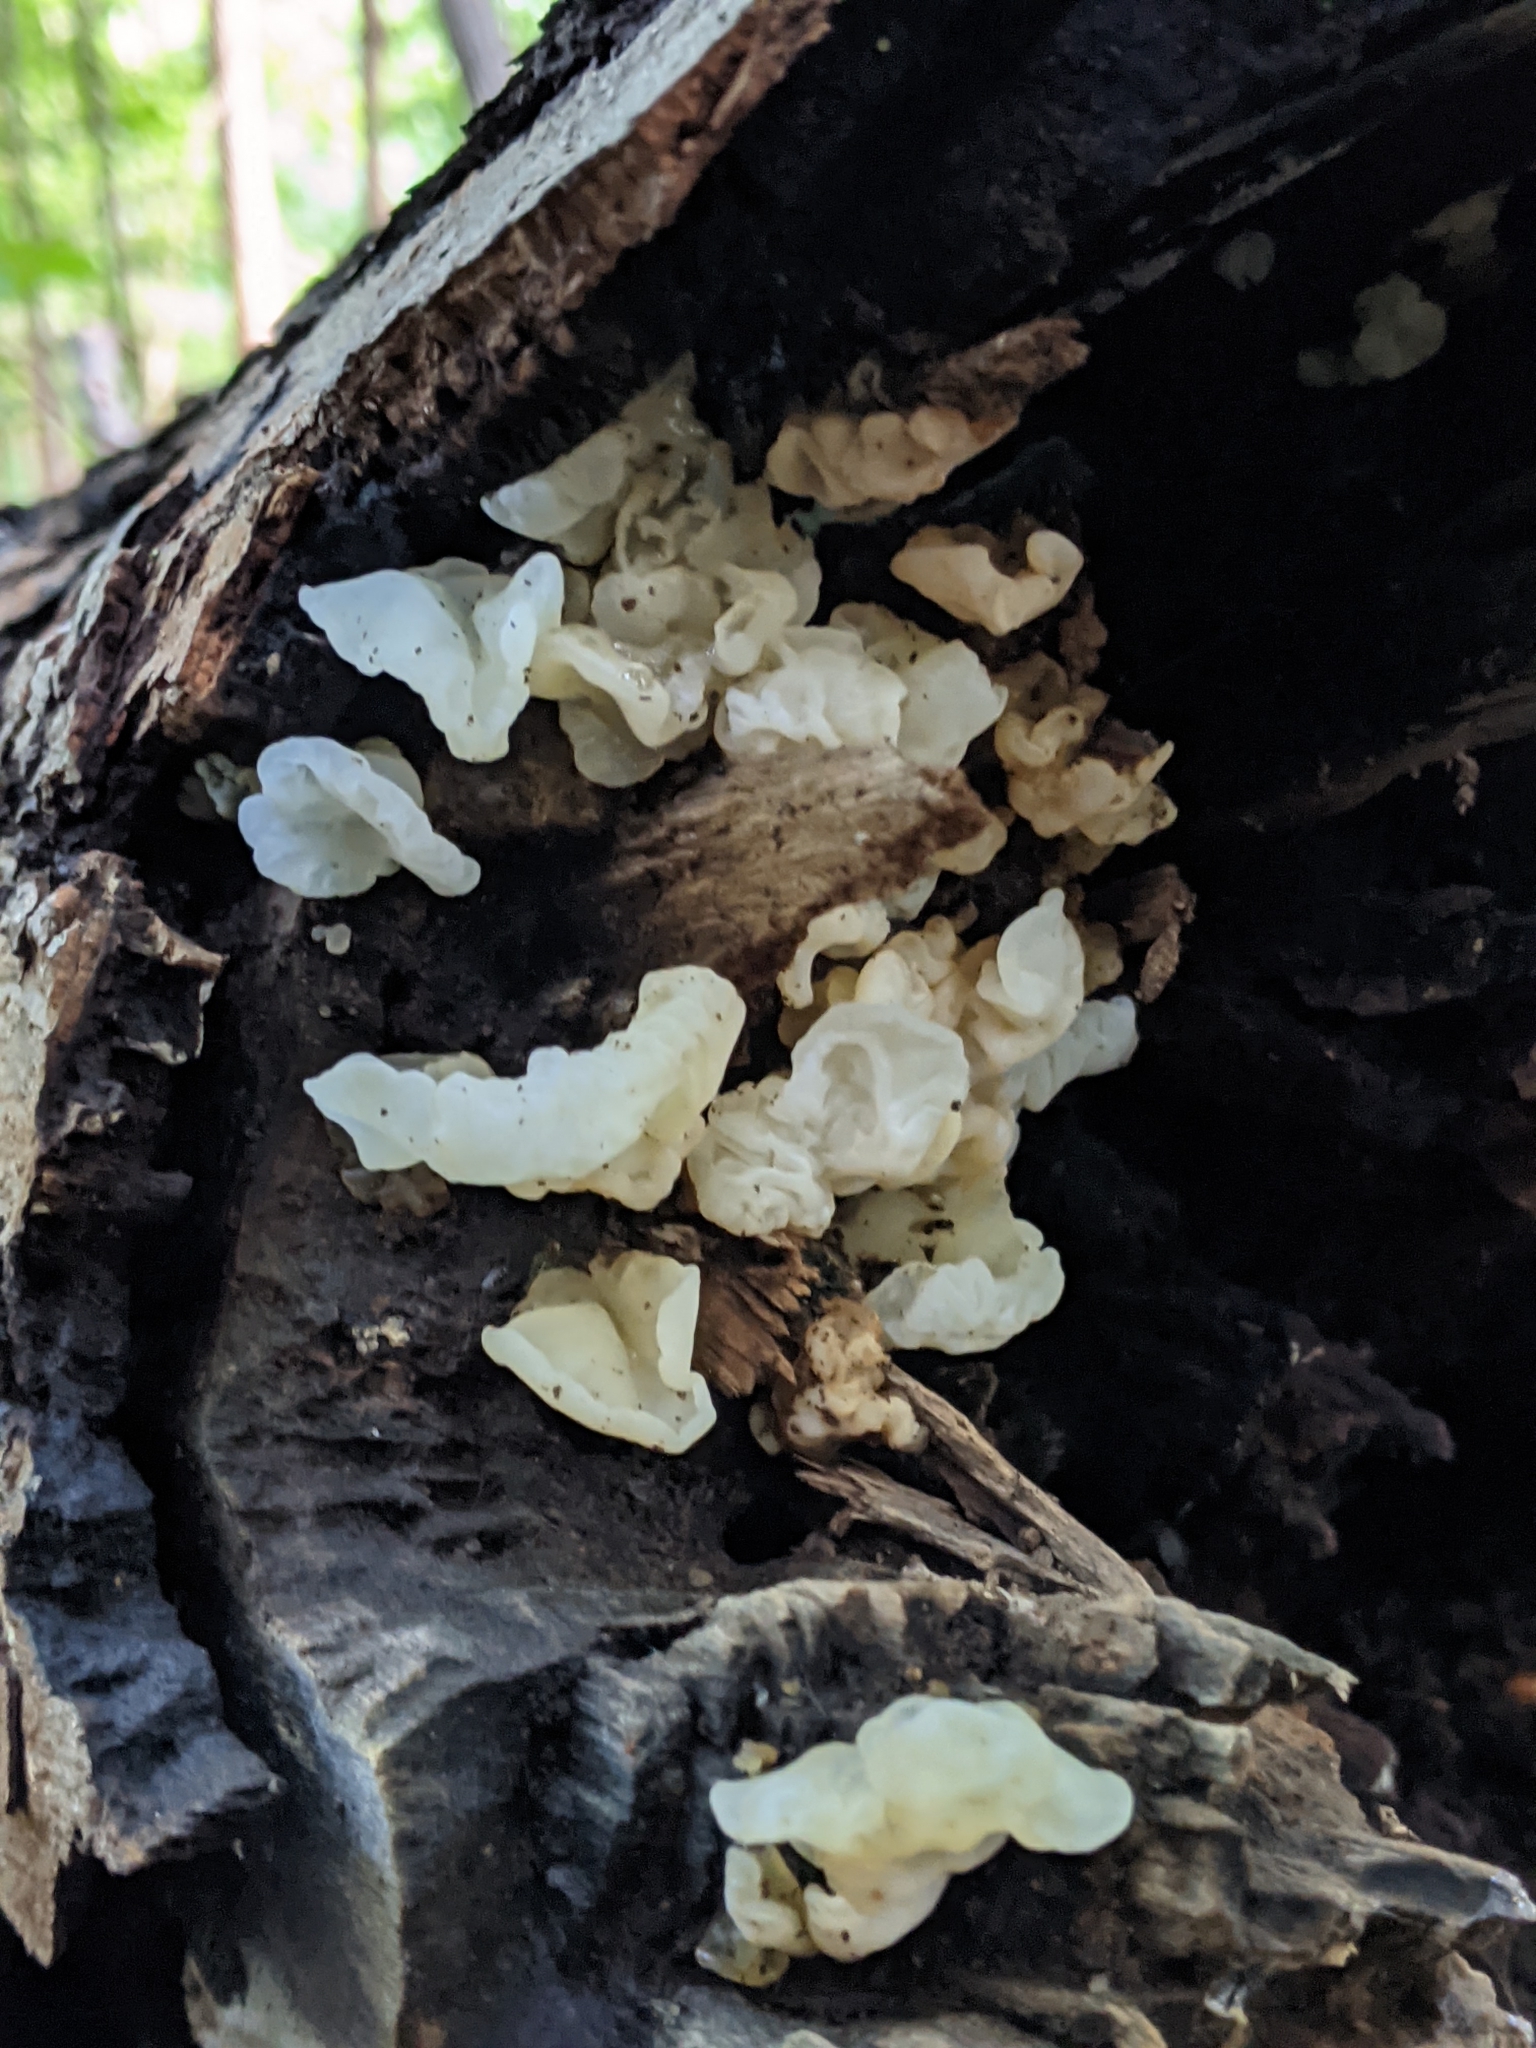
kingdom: Fungi
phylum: Basidiomycota
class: Agaricomycetes
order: Auriculariales
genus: Ductifera
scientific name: Ductifera pululahuana
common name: White jelly fungus
